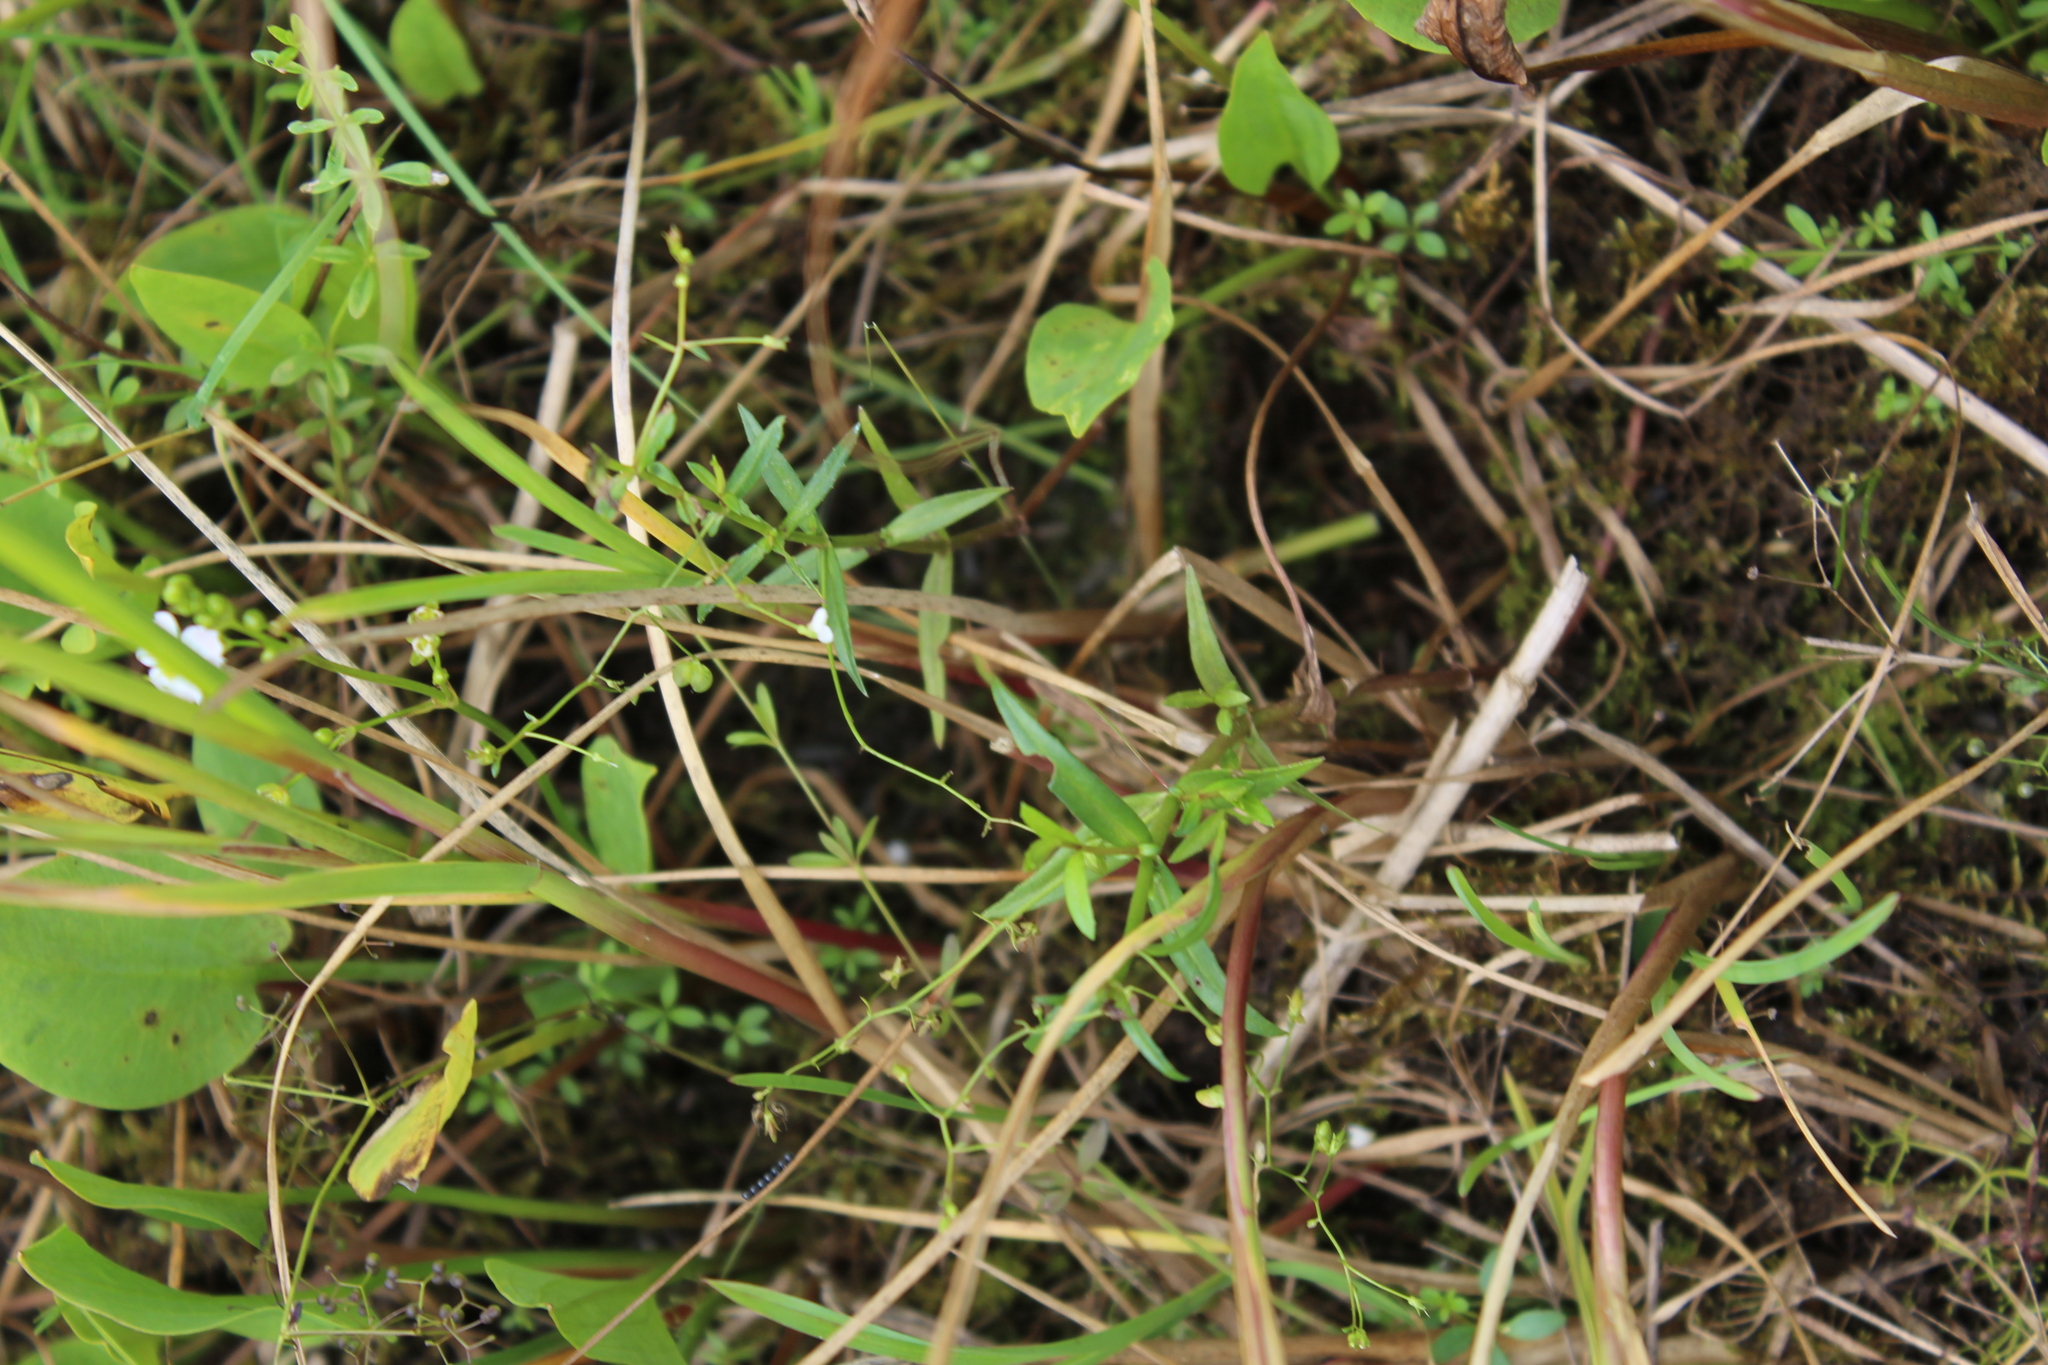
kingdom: Plantae
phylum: Tracheophyta
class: Magnoliopsida
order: Lamiales
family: Plantaginaceae
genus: Veronica
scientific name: Veronica scutellata
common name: Marsh speedwell
